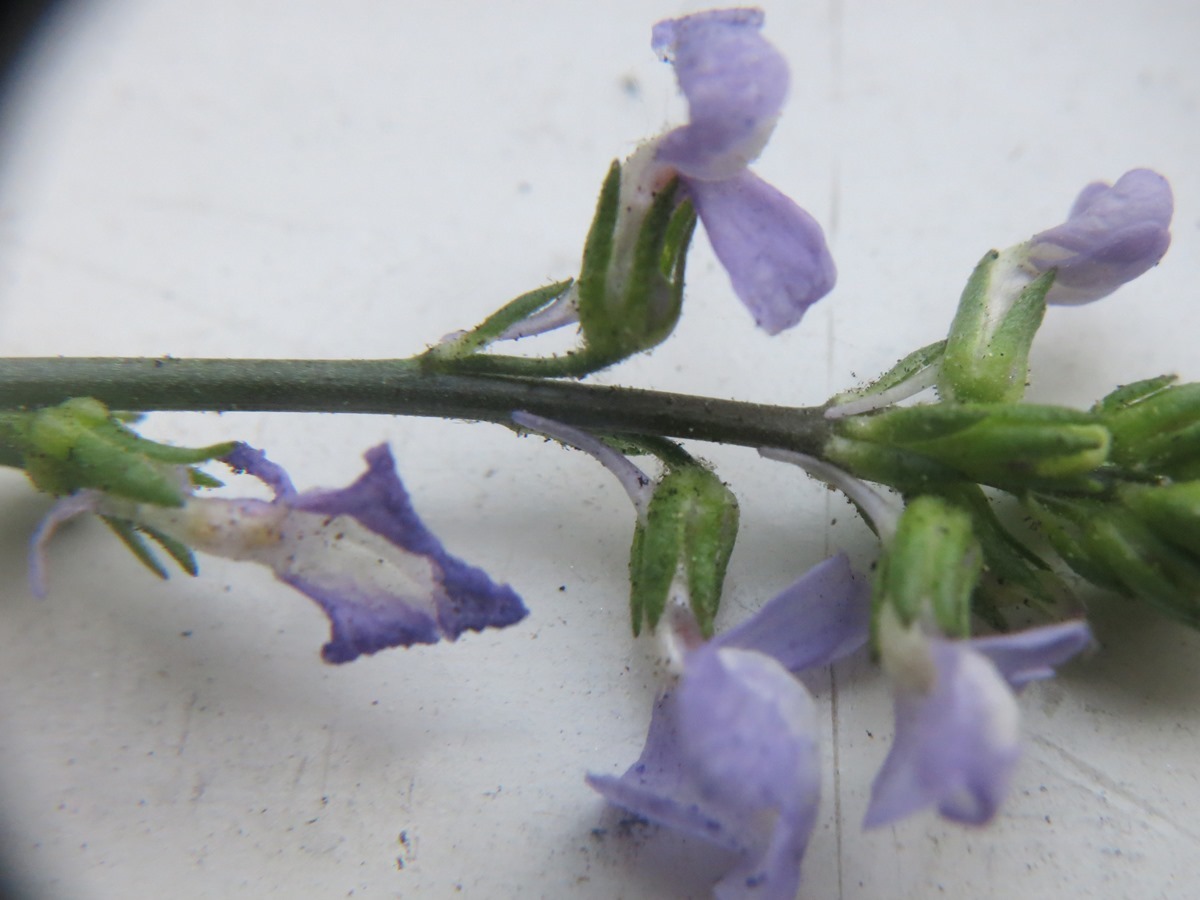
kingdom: Plantae
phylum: Tracheophyta
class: Magnoliopsida
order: Lamiales
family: Plantaginaceae
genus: Nuttallanthus
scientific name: Nuttallanthus canadensis
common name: Blue toadflax
